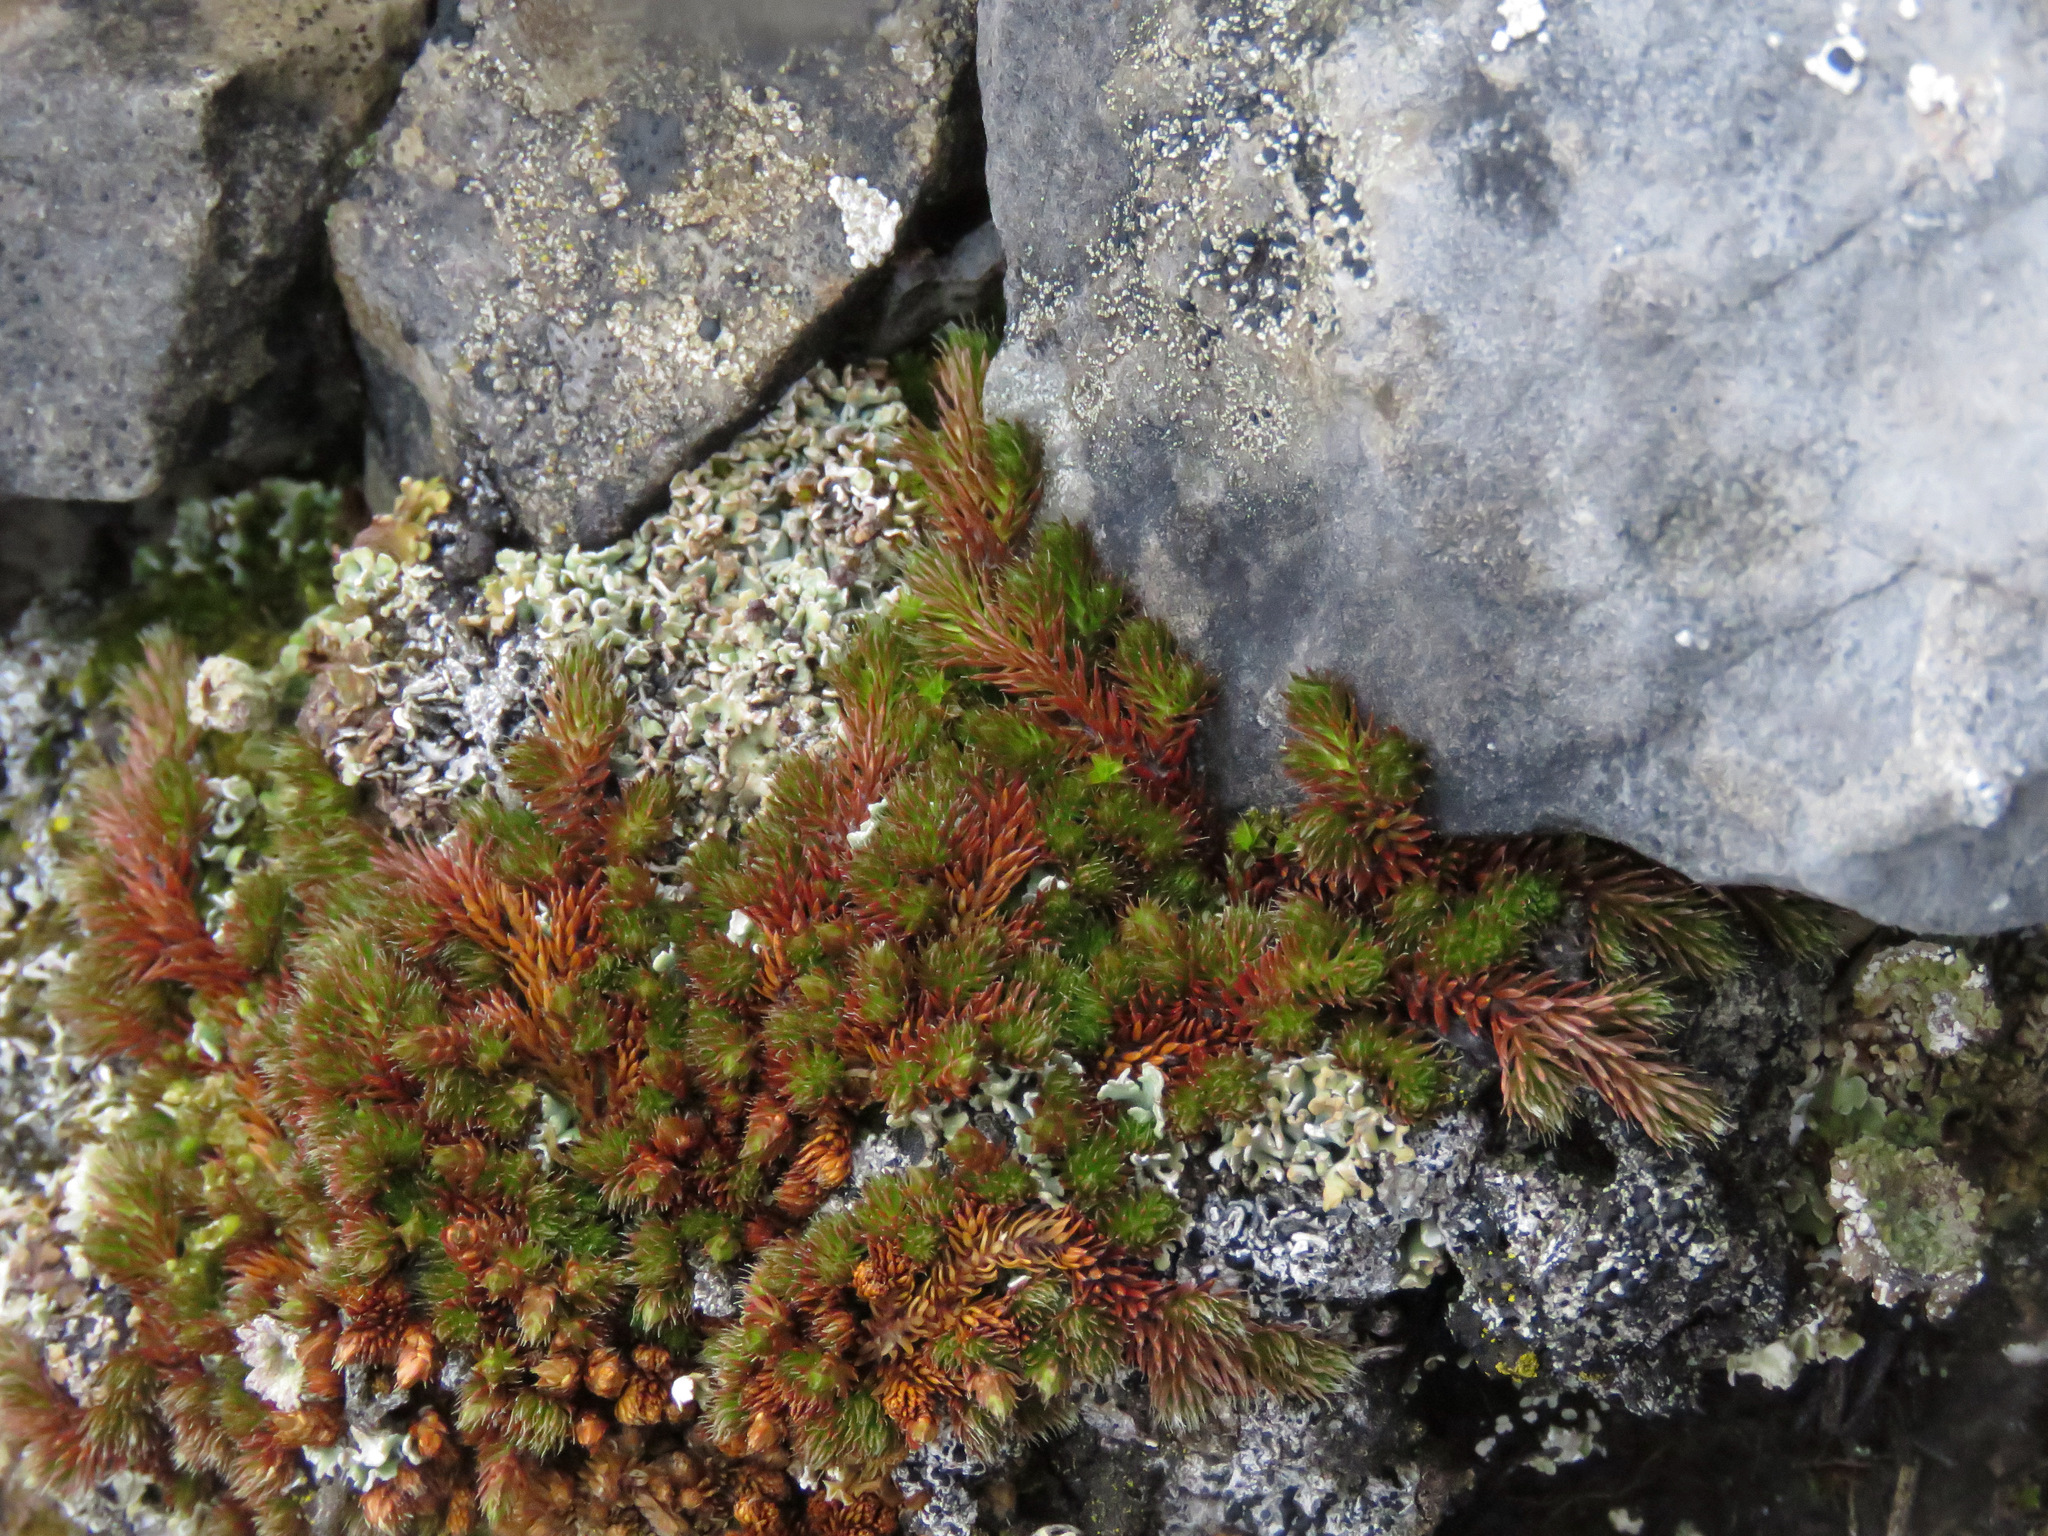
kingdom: Plantae
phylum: Tracheophyta
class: Lycopodiopsida
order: Selaginellales
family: Selaginellaceae
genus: Selaginella
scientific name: Selaginella densa
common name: Mountain spike-moss
